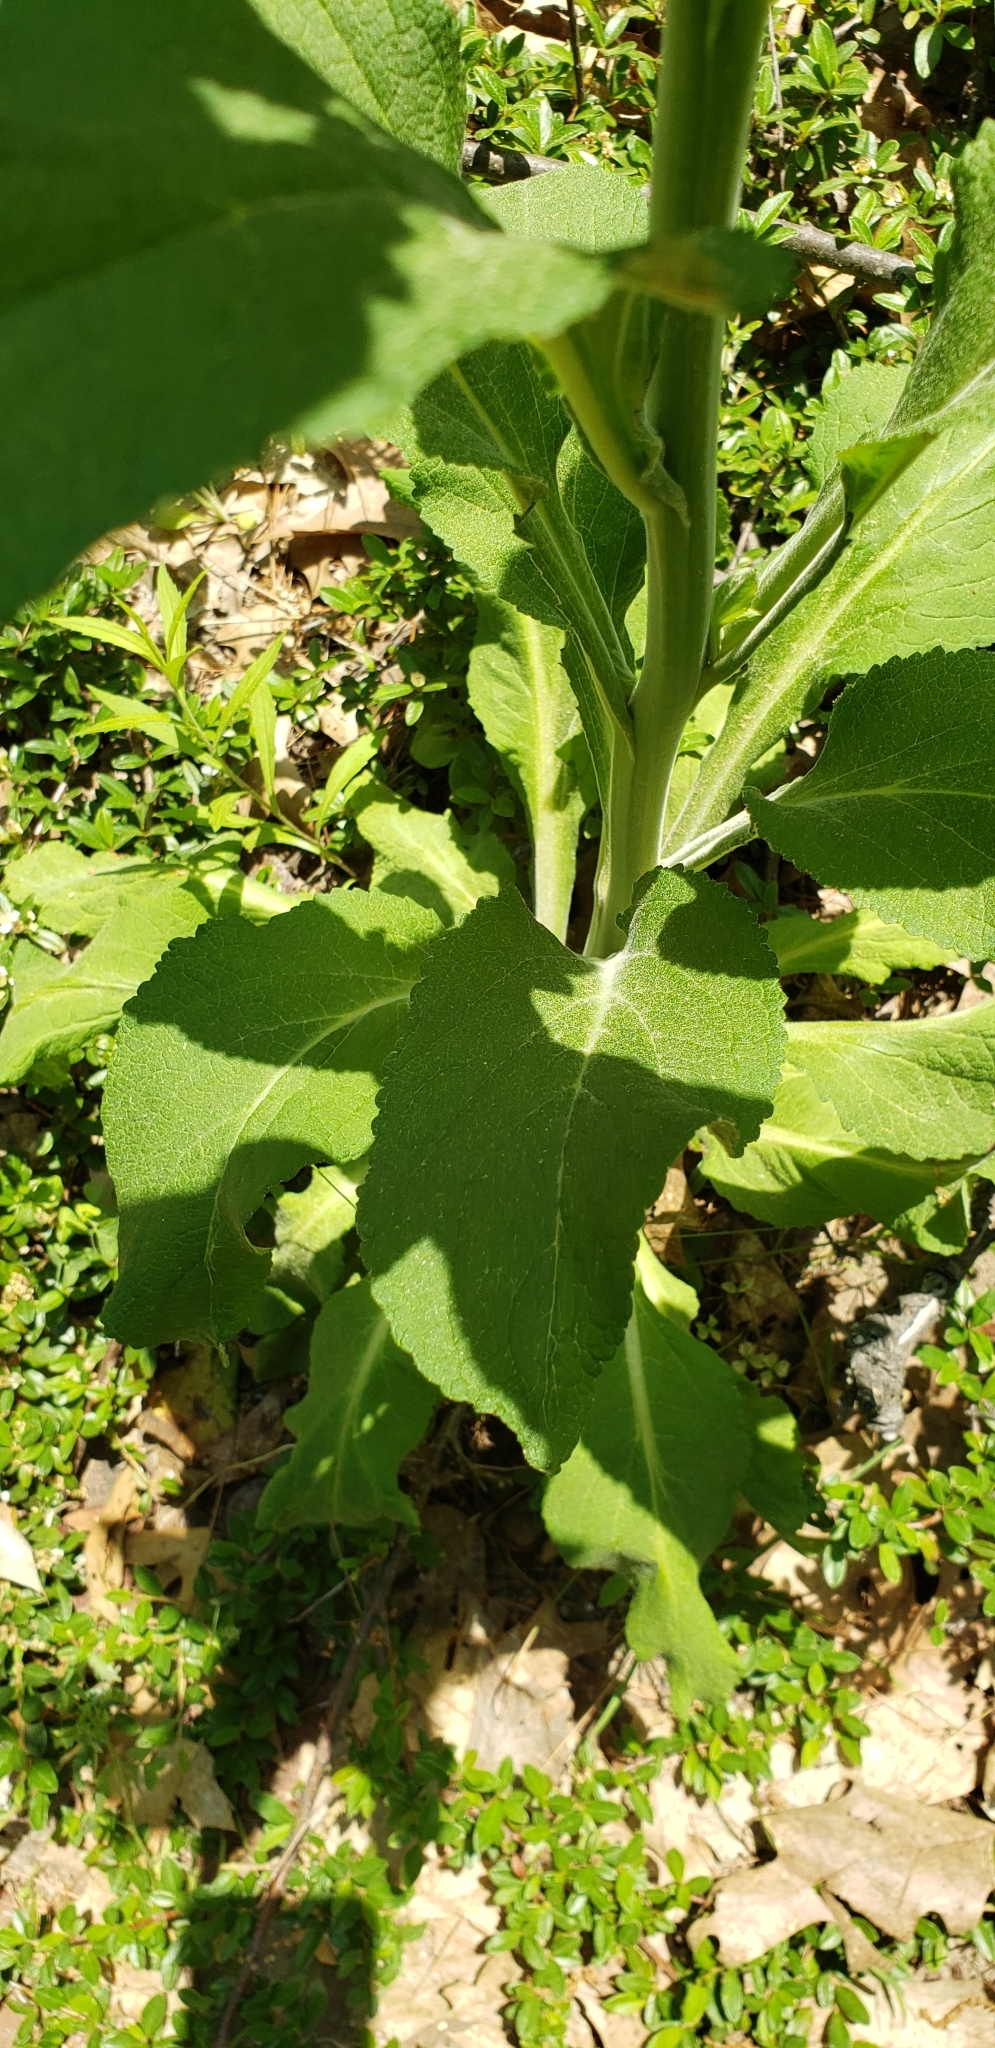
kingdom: Plantae
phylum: Tracheophyta
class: Magnoliopsida
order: Lamiales
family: Plantaginaceae
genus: Digitalis
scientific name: Digitalis purpurea
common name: Foxglove
